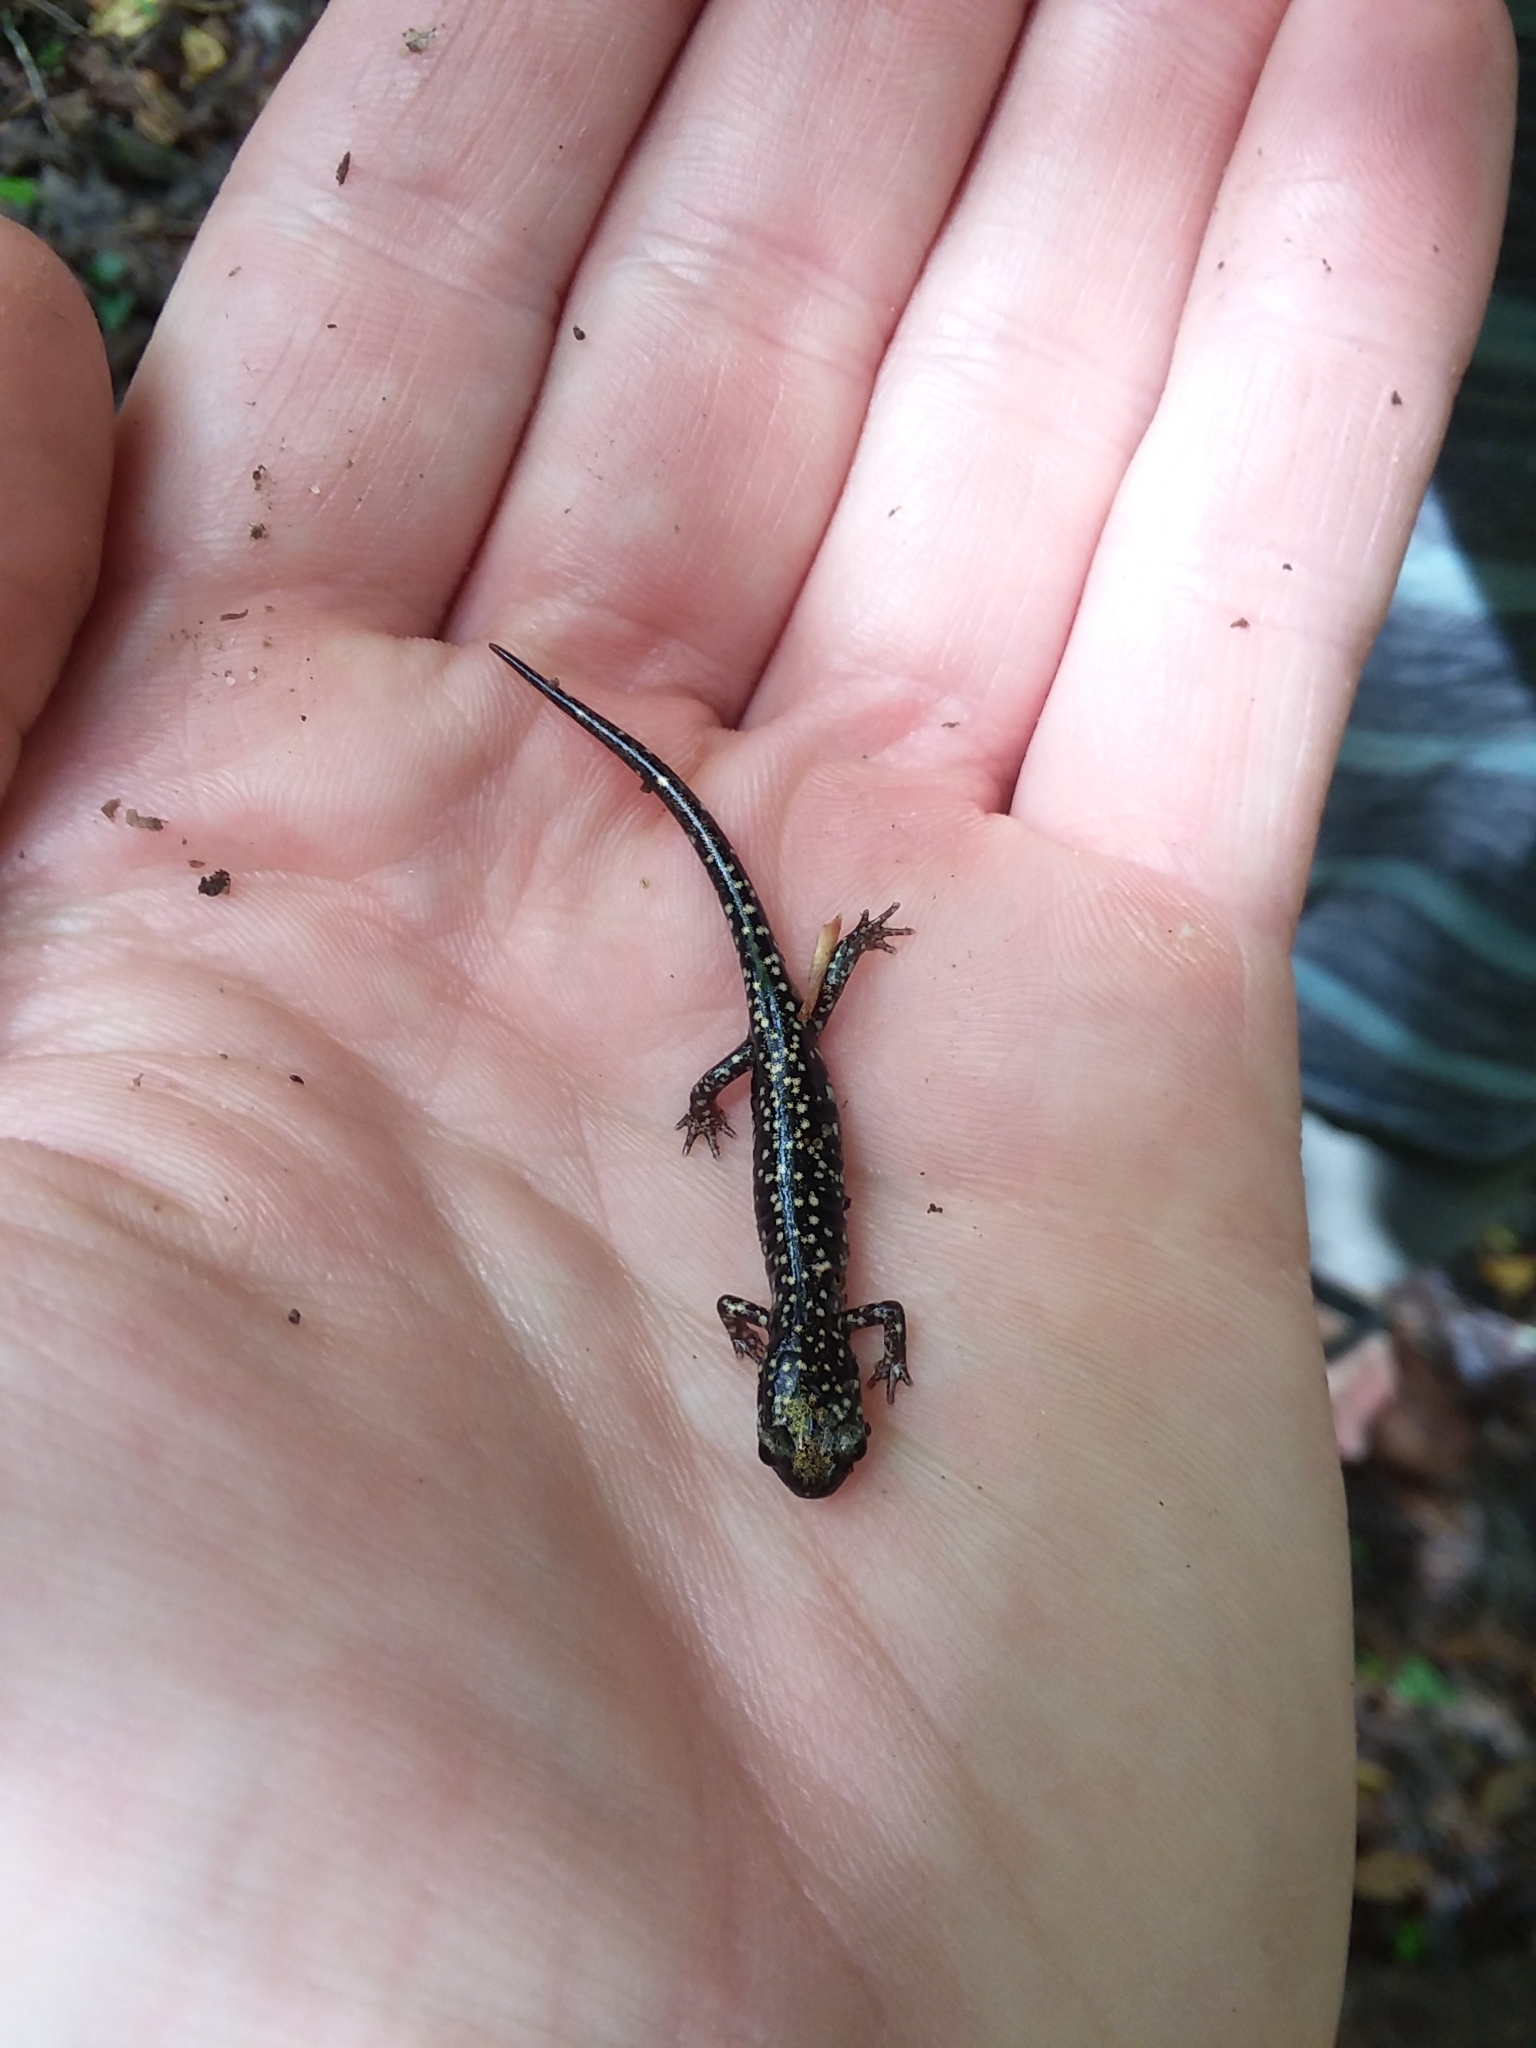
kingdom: Animalia
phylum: Chordata
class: Amphibia
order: Caudata
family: Plethodontidae
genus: Plethodon
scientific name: Plethodon mississippi
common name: Mississippi slimy salamander
